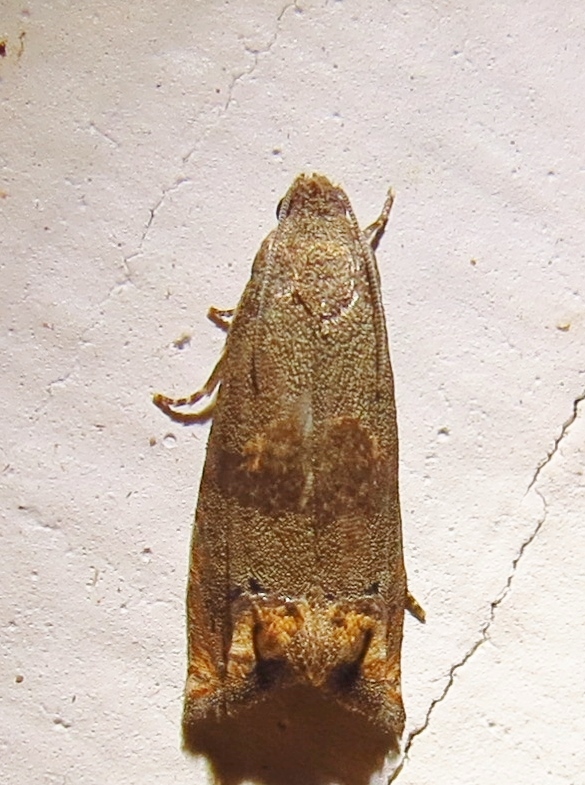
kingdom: Animalia
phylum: Arthropoda
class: Insecta
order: Lepidoptera
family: Tortricidae
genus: Epiblema
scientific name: Epiblema strenuana
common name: Ragweed borer moth
